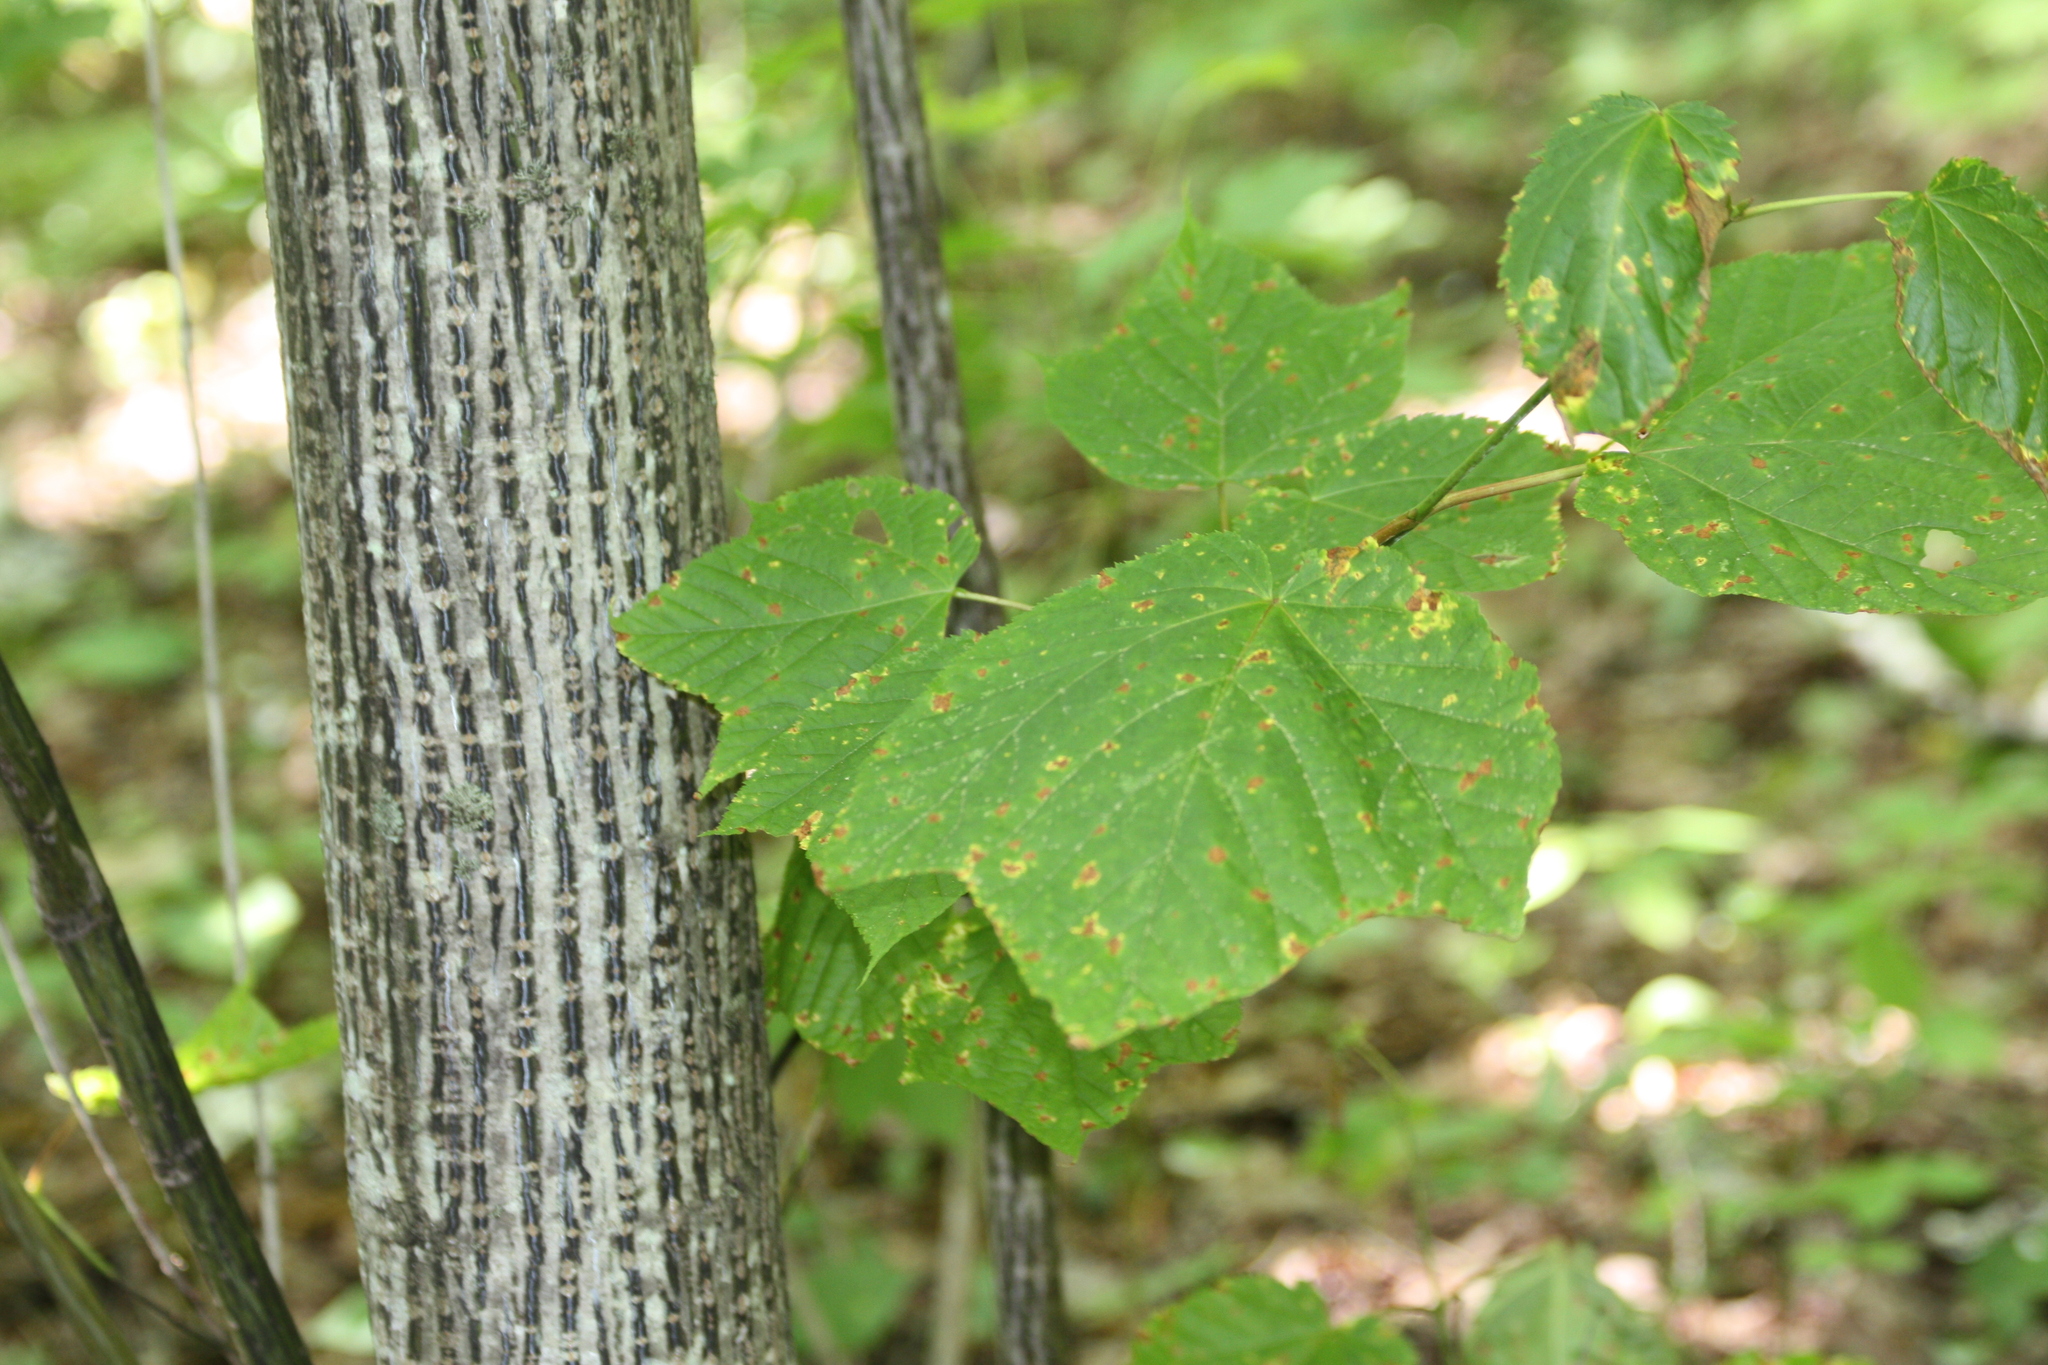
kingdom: Plantae
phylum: Tracheophyta
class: Magnoliopsida
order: Sapindales
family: Sapindaceae
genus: Acer
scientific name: Acer pensylvanicum
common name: Moosewood
